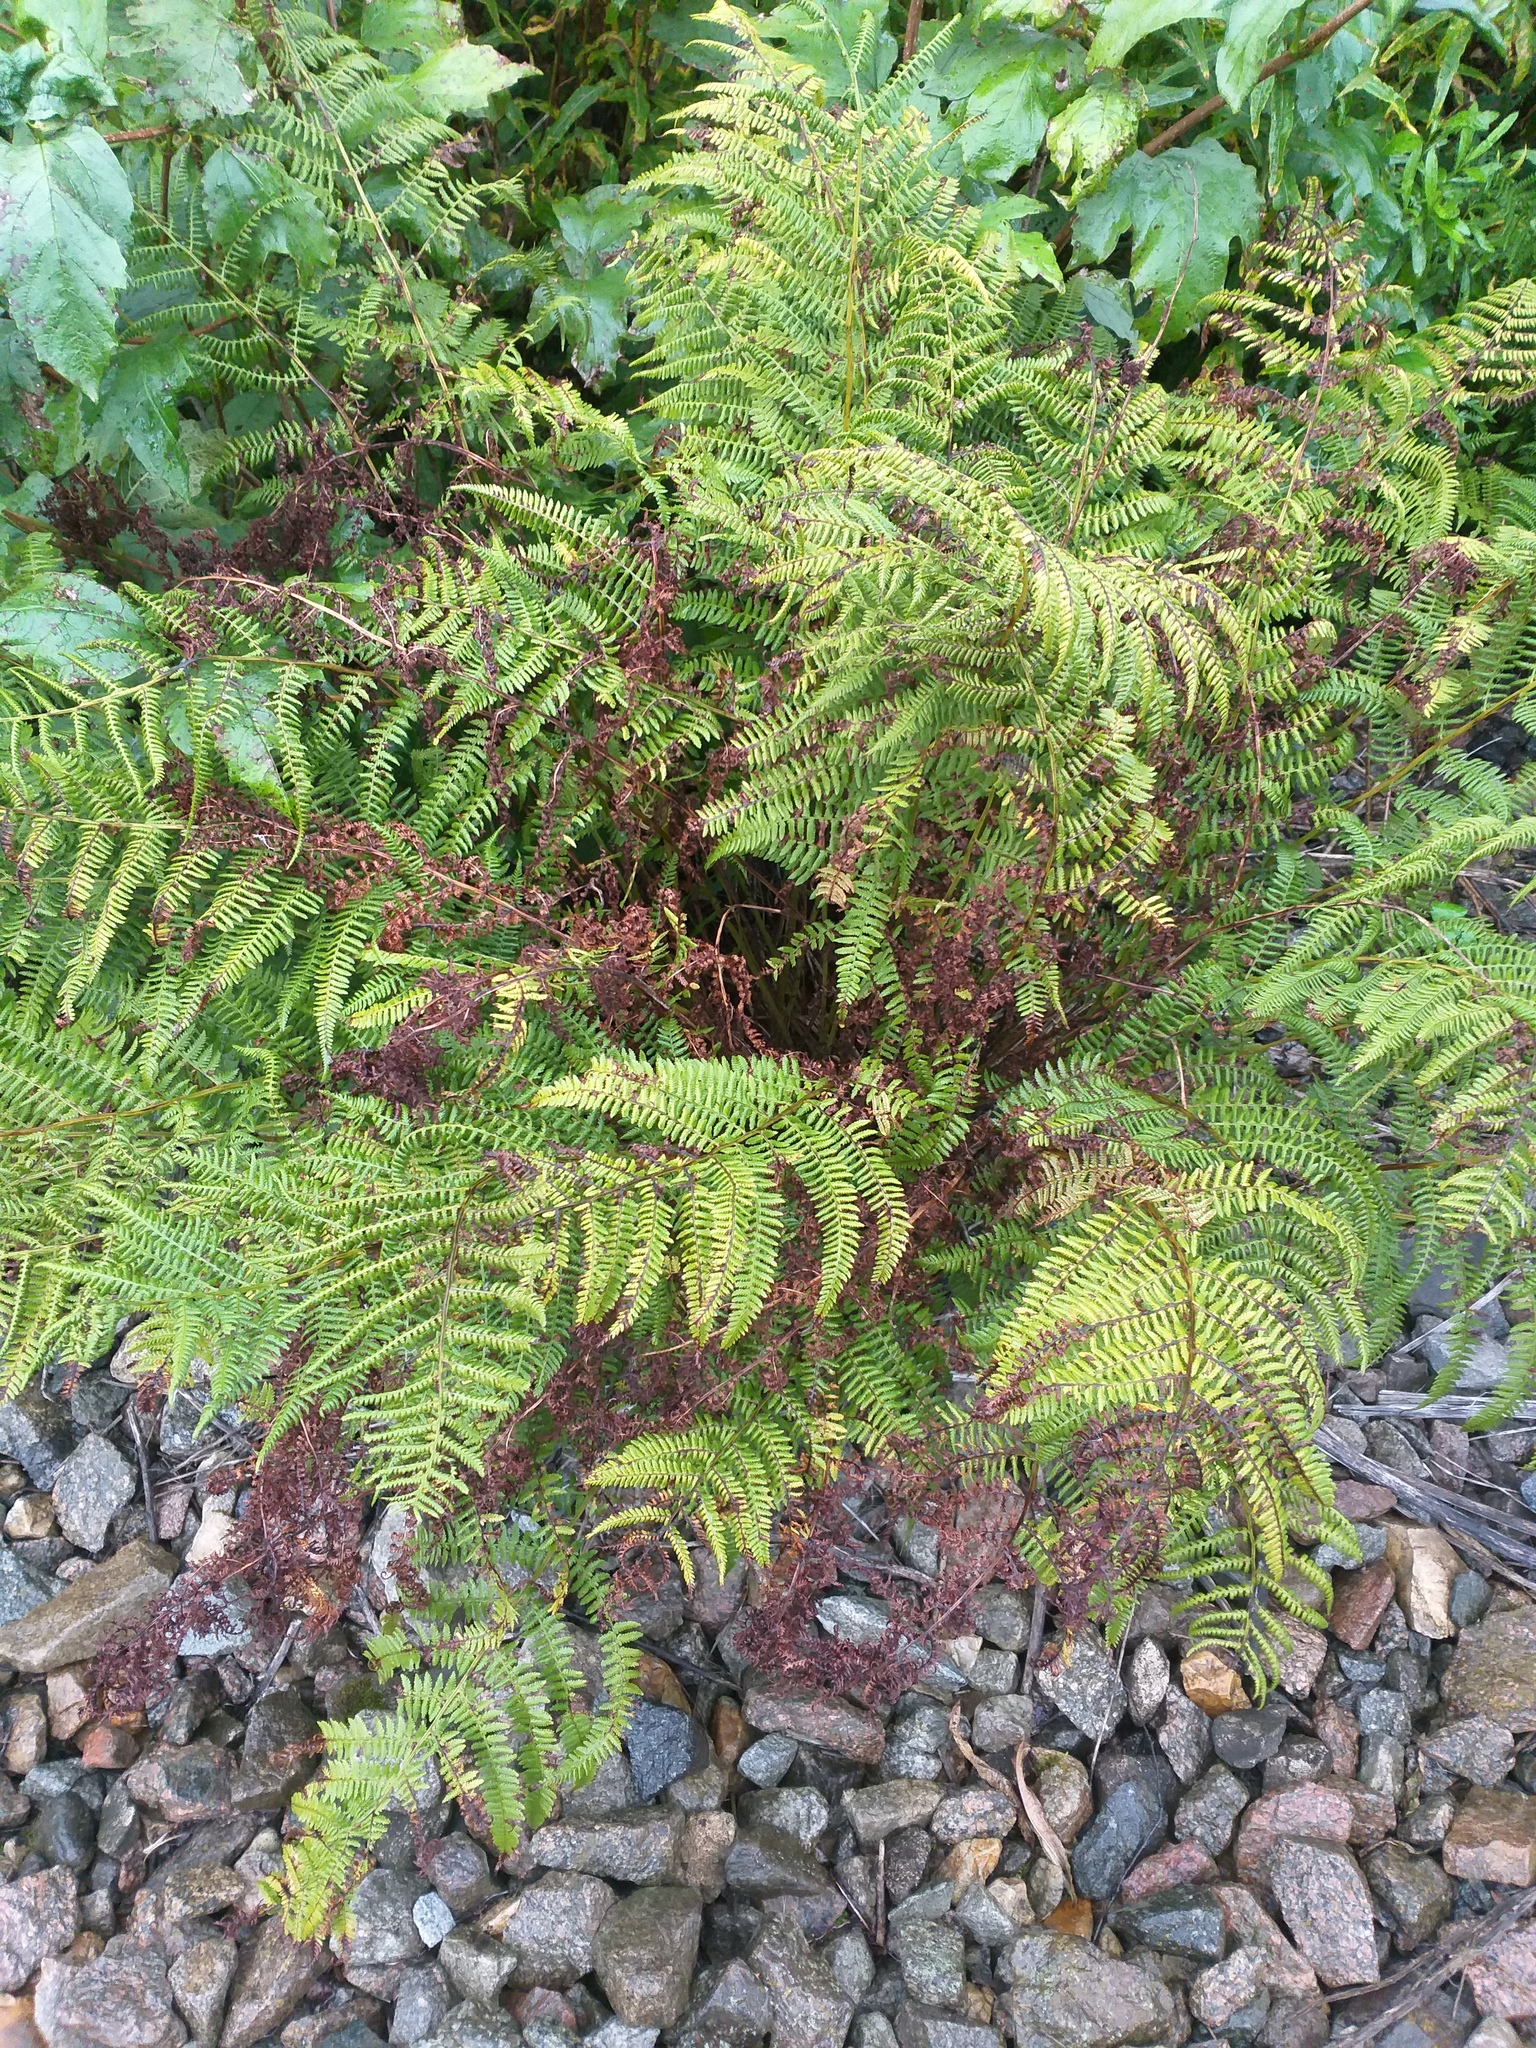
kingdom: Plantae
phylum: Tracheophyta
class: Polypodiopsida
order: Polypodiales
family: Athyriaceae
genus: Athyrium
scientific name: Athyrium filix-femina
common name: Lady fern
